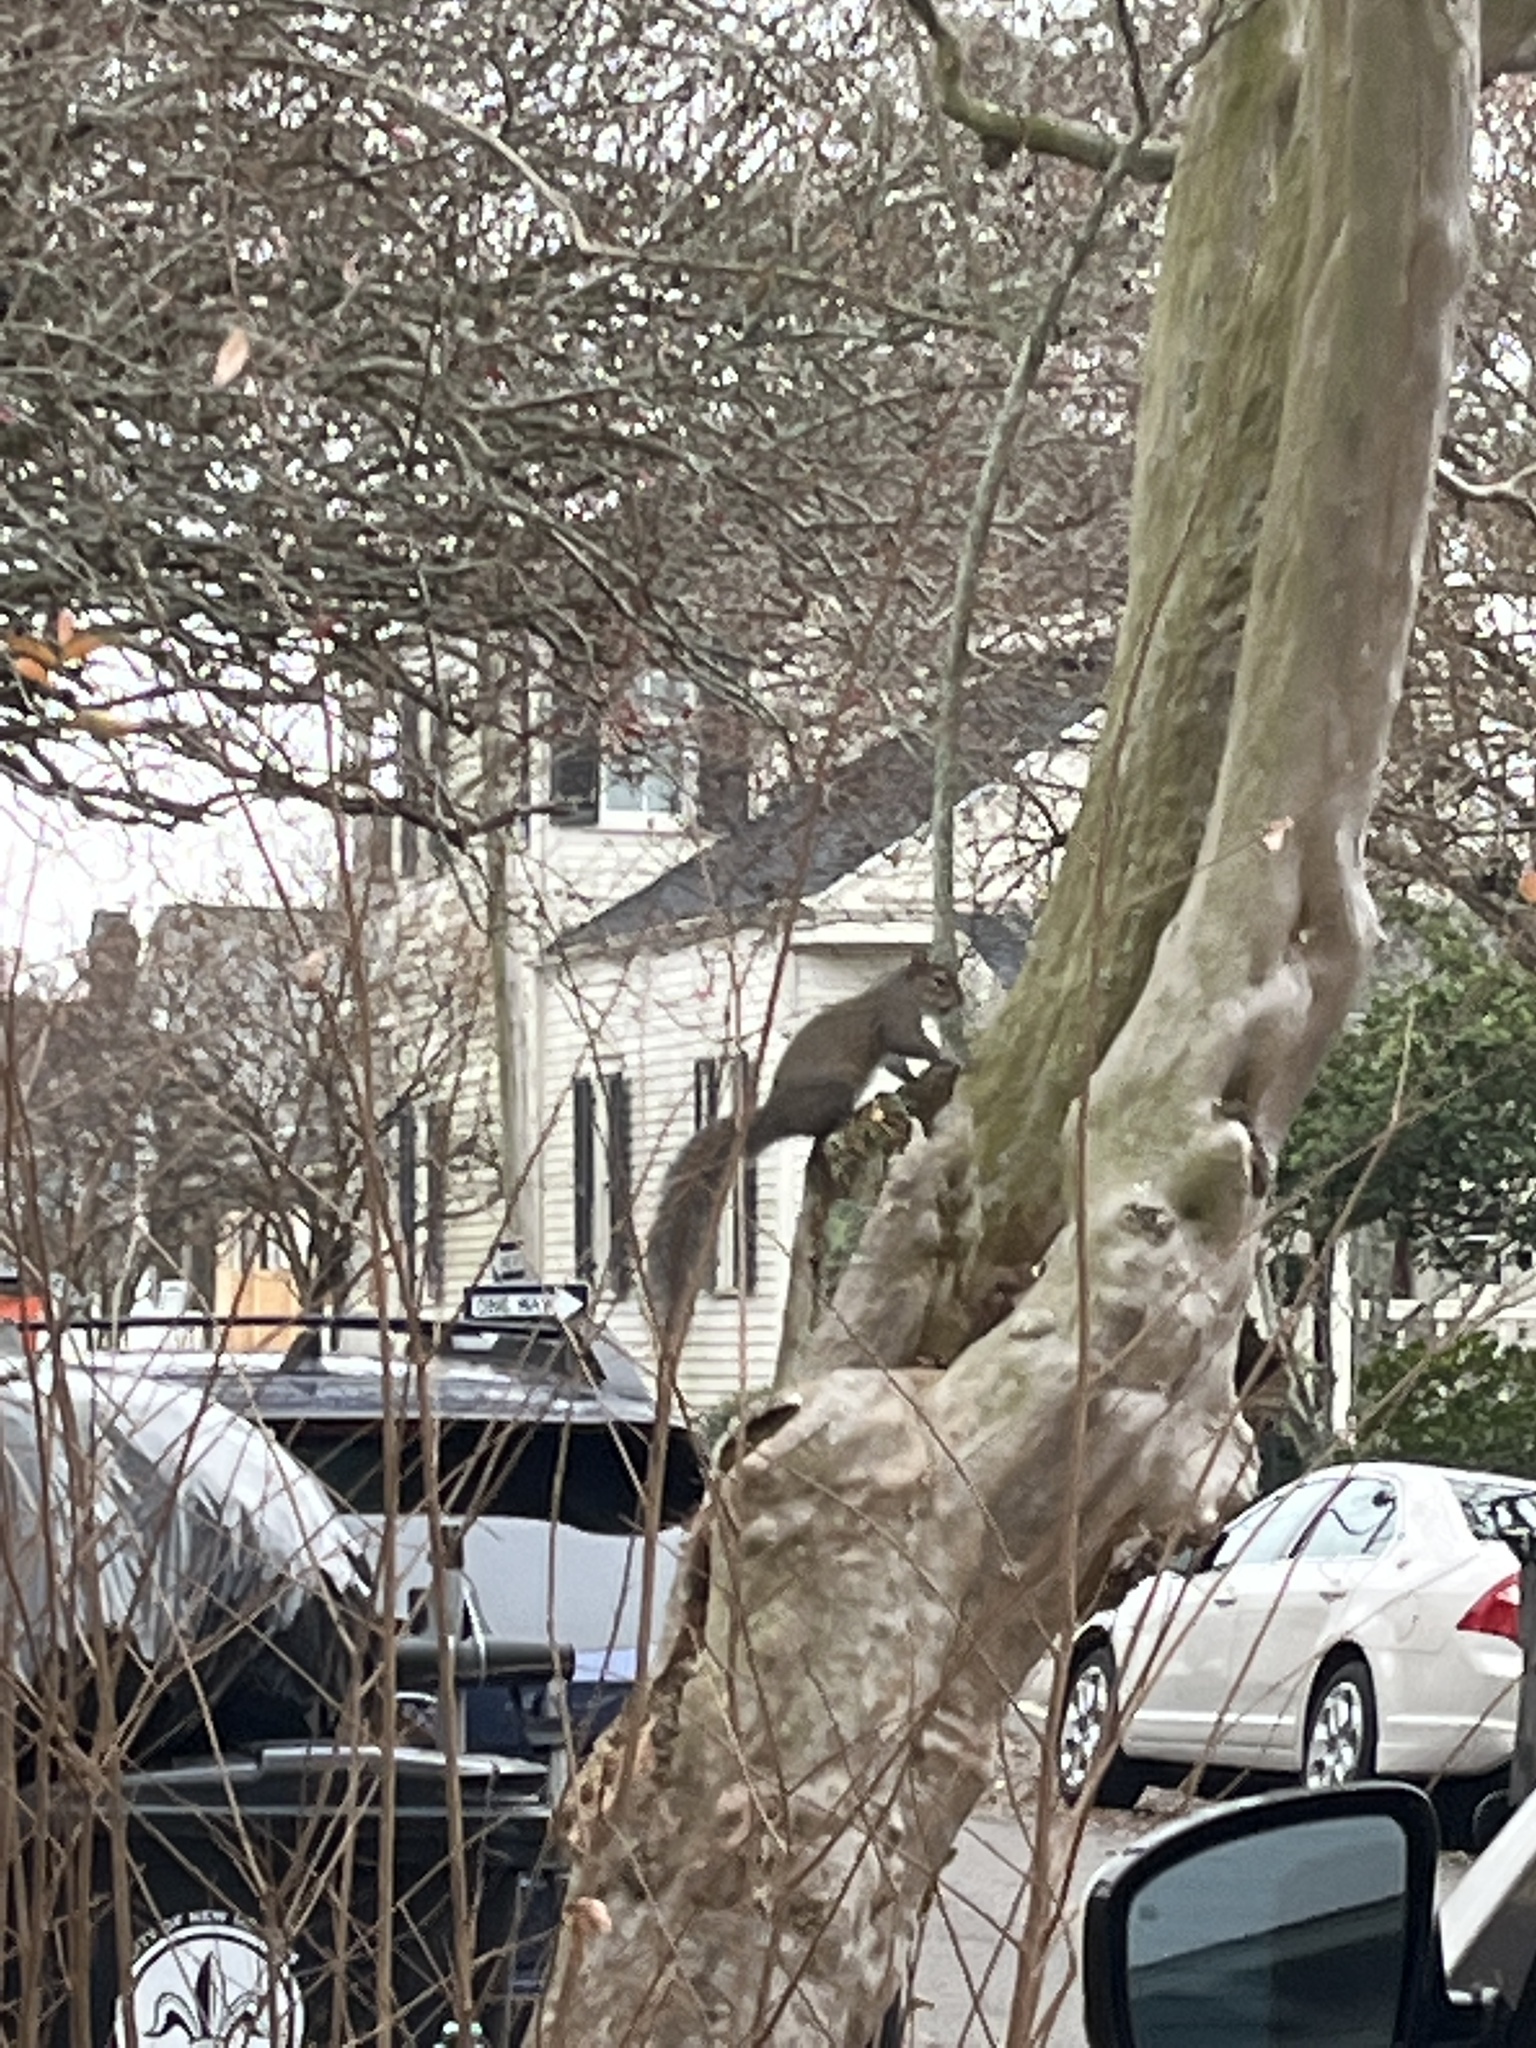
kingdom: Animalia
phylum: Chordata
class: Mammalia
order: Rodentia
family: Sciuridae
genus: Sciurus
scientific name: Sciurus carolinensis
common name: Eastern gray squirrel
